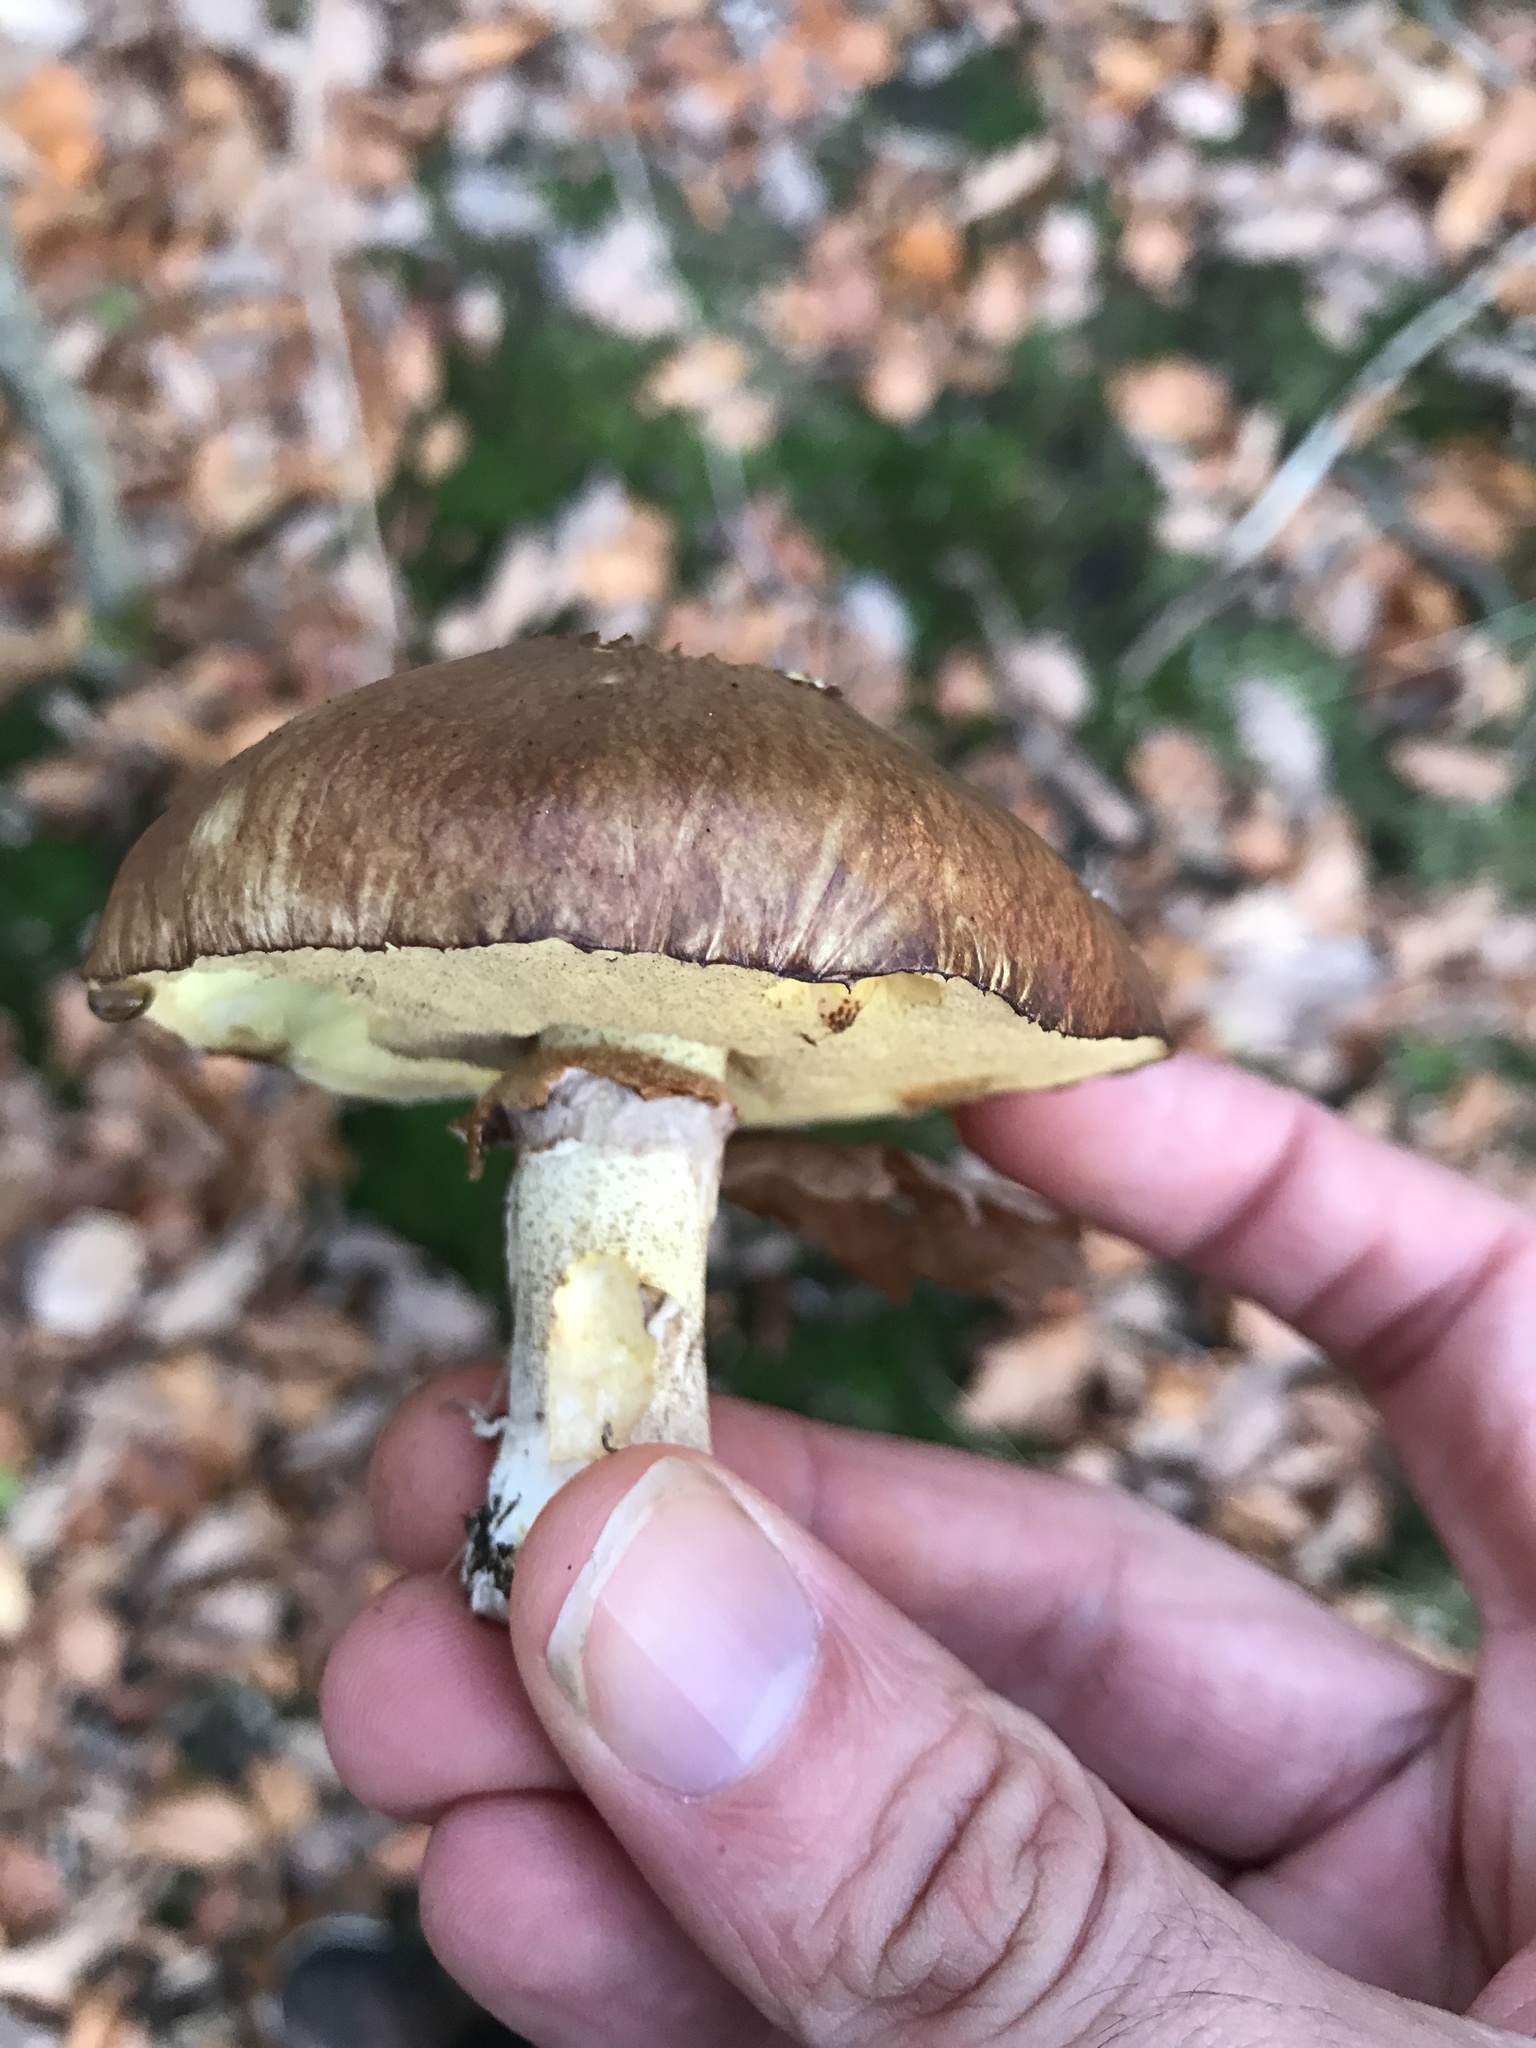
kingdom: Fungi
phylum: Basidiomycota
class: Agaricomycetes
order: Boletales
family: Suillaceae
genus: Suillus
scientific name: Suillus luteus
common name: Slippery jack
